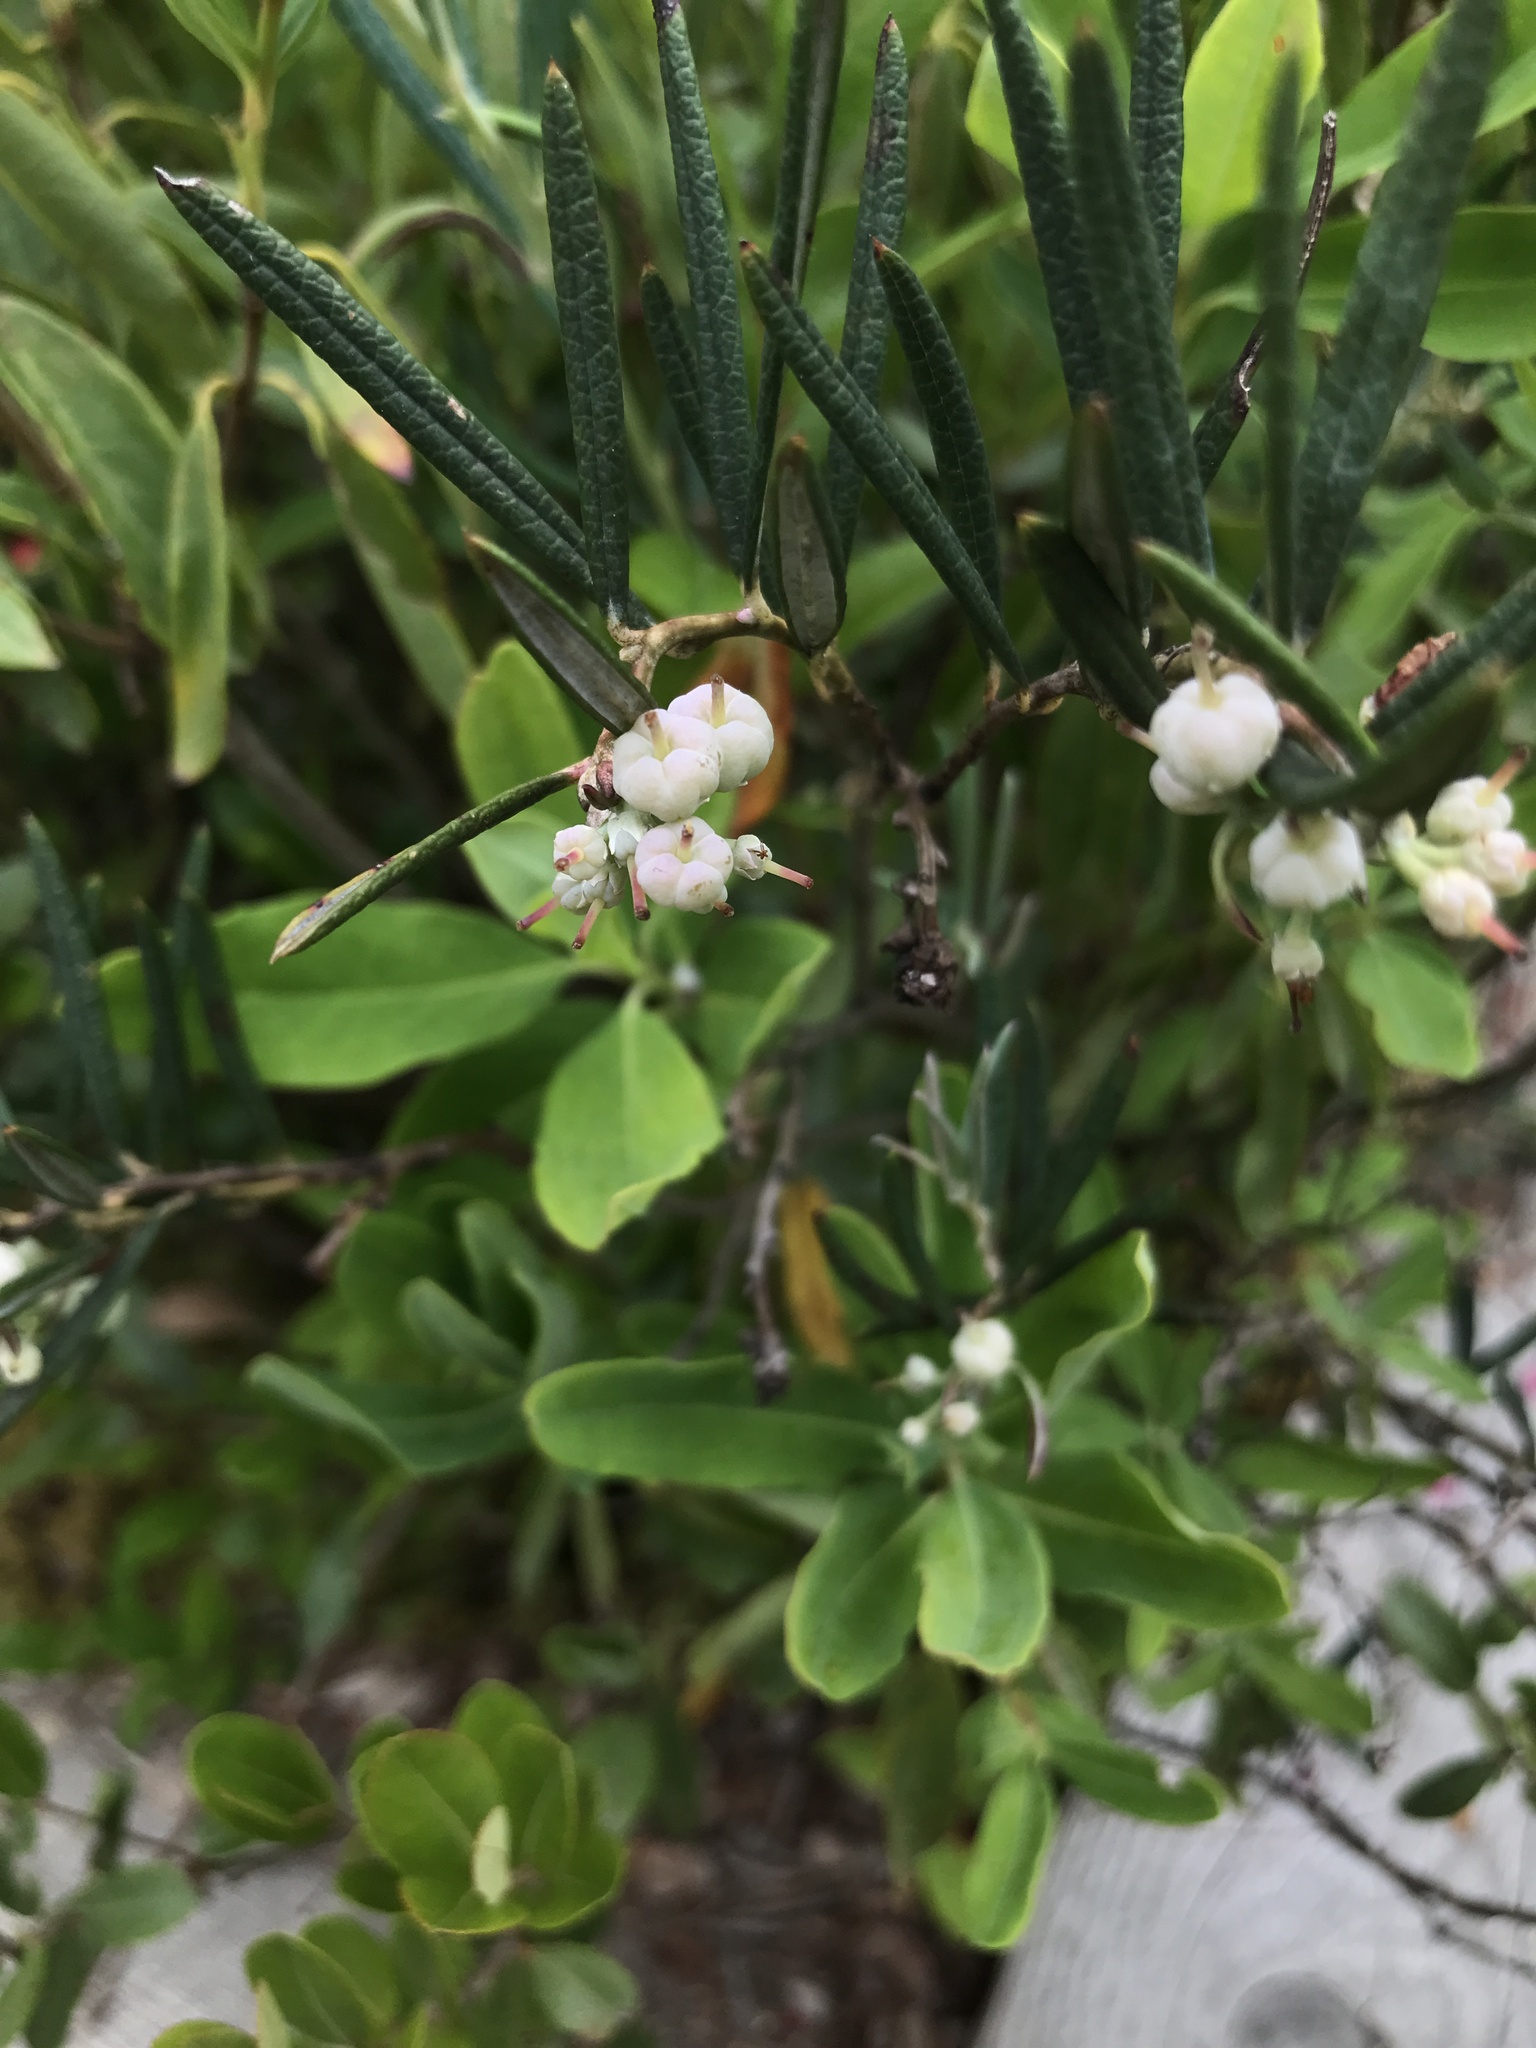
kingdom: Plantae
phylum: Tracheophyta
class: Magnoliopsida
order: Ericales
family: Ericaceae
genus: Andromeda
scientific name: Andromeda polifolia
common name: Bog-rosemary
